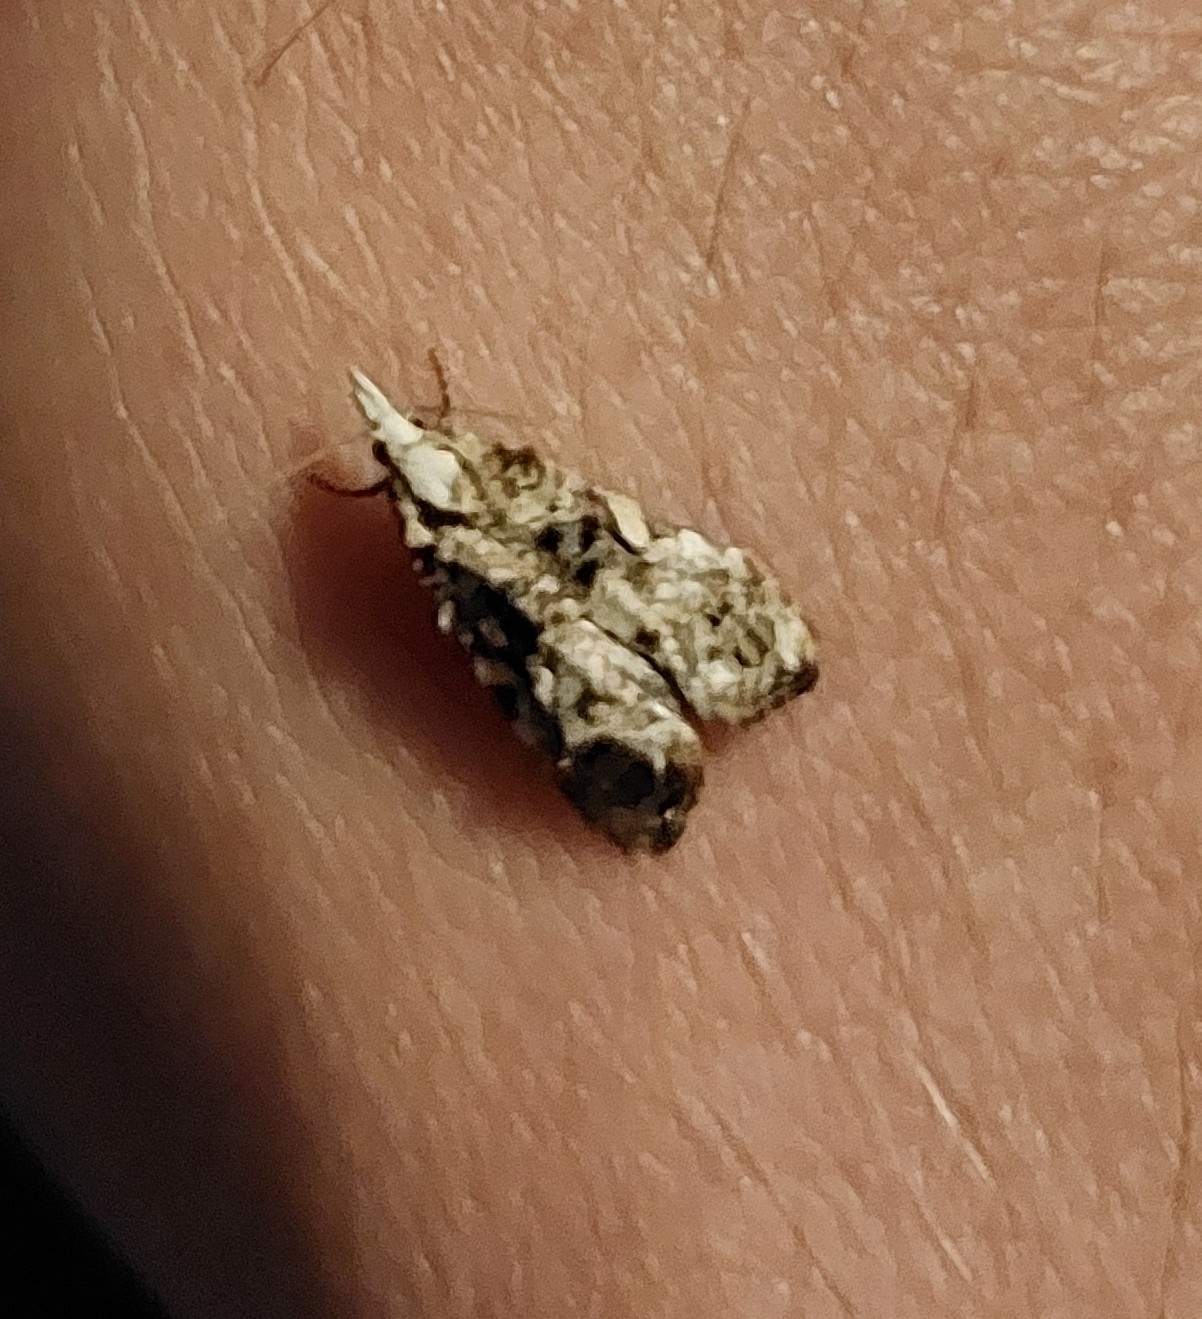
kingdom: Animalia
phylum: Arthropoda
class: Insecta
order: Lepidoptera
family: Tortricidae
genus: Phtheochroa
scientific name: Phtheochroa rugosana
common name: Rough-winged conch
